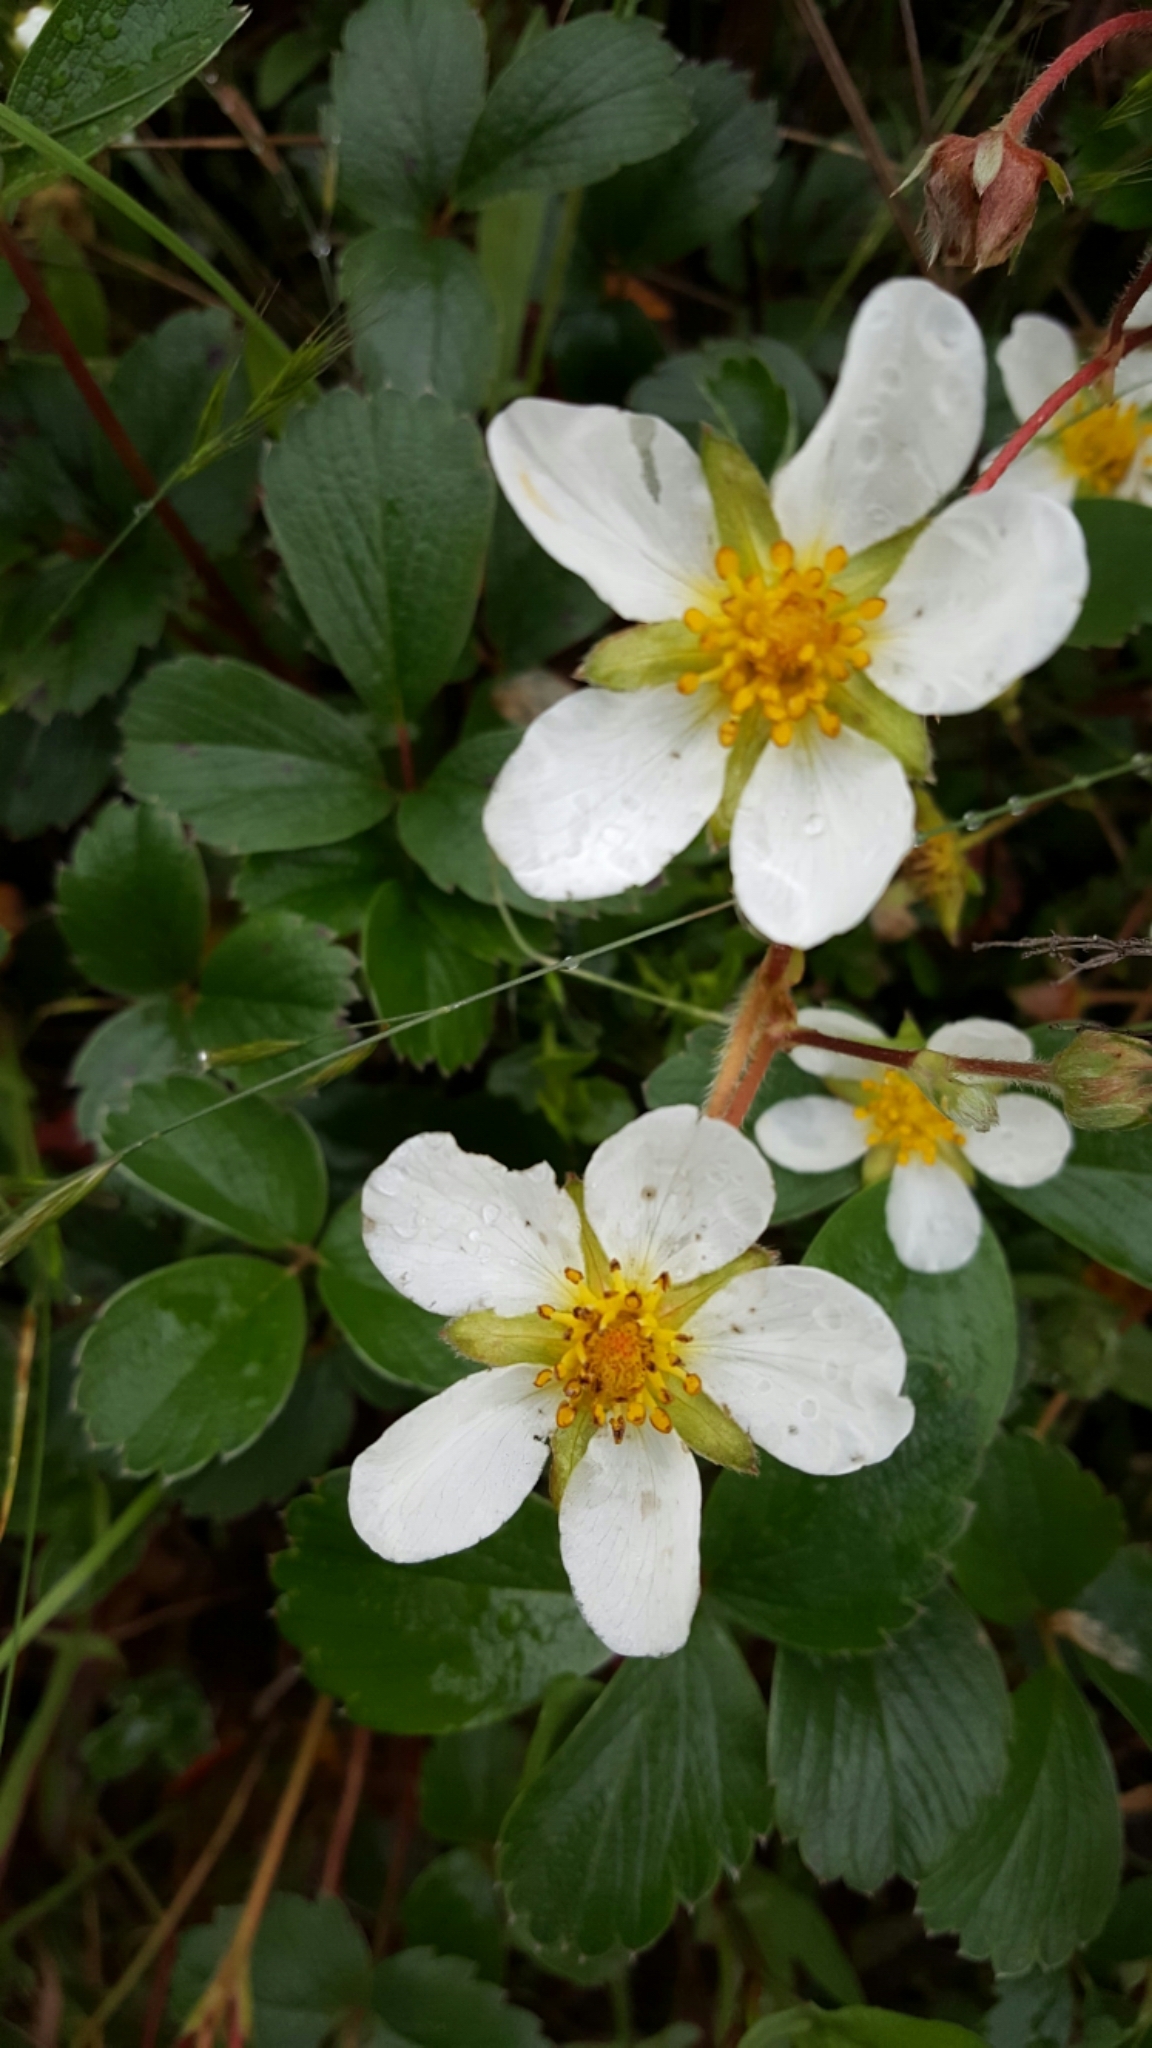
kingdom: Plantae
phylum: Tracheophyta
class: Magnoliopsida
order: Rosales
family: Rosaceae
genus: Fragaria
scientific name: Fragaria chiloensis
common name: Beach strawberry
